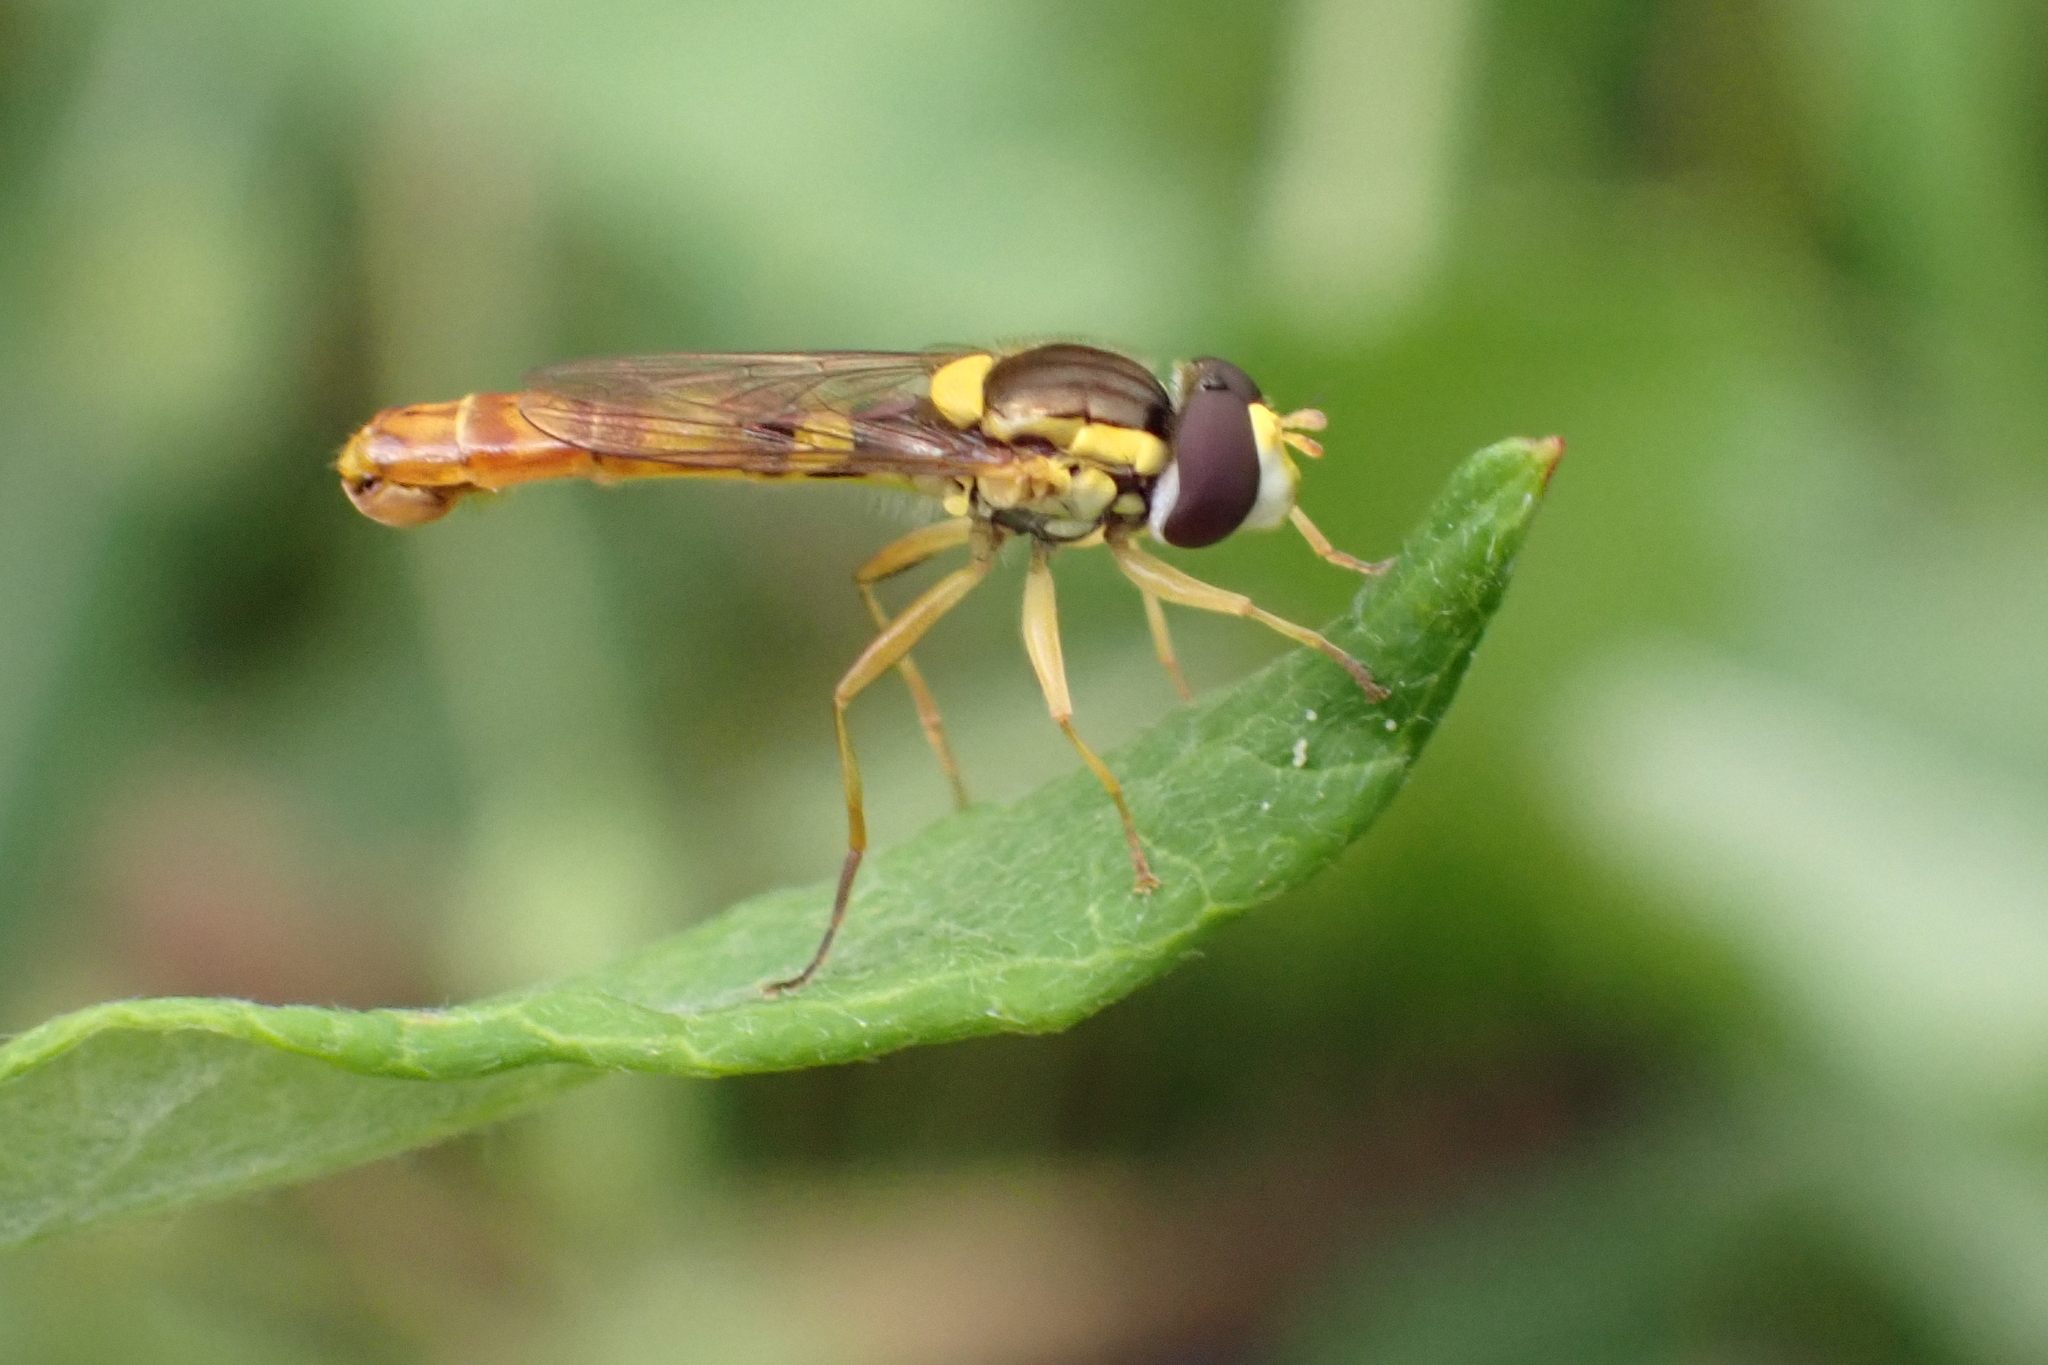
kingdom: Animalia
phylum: Arthropoda
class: Insecta
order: Diptera
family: Syrphidae
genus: Sphaerophoria
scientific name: Sphaerophoria scripta
